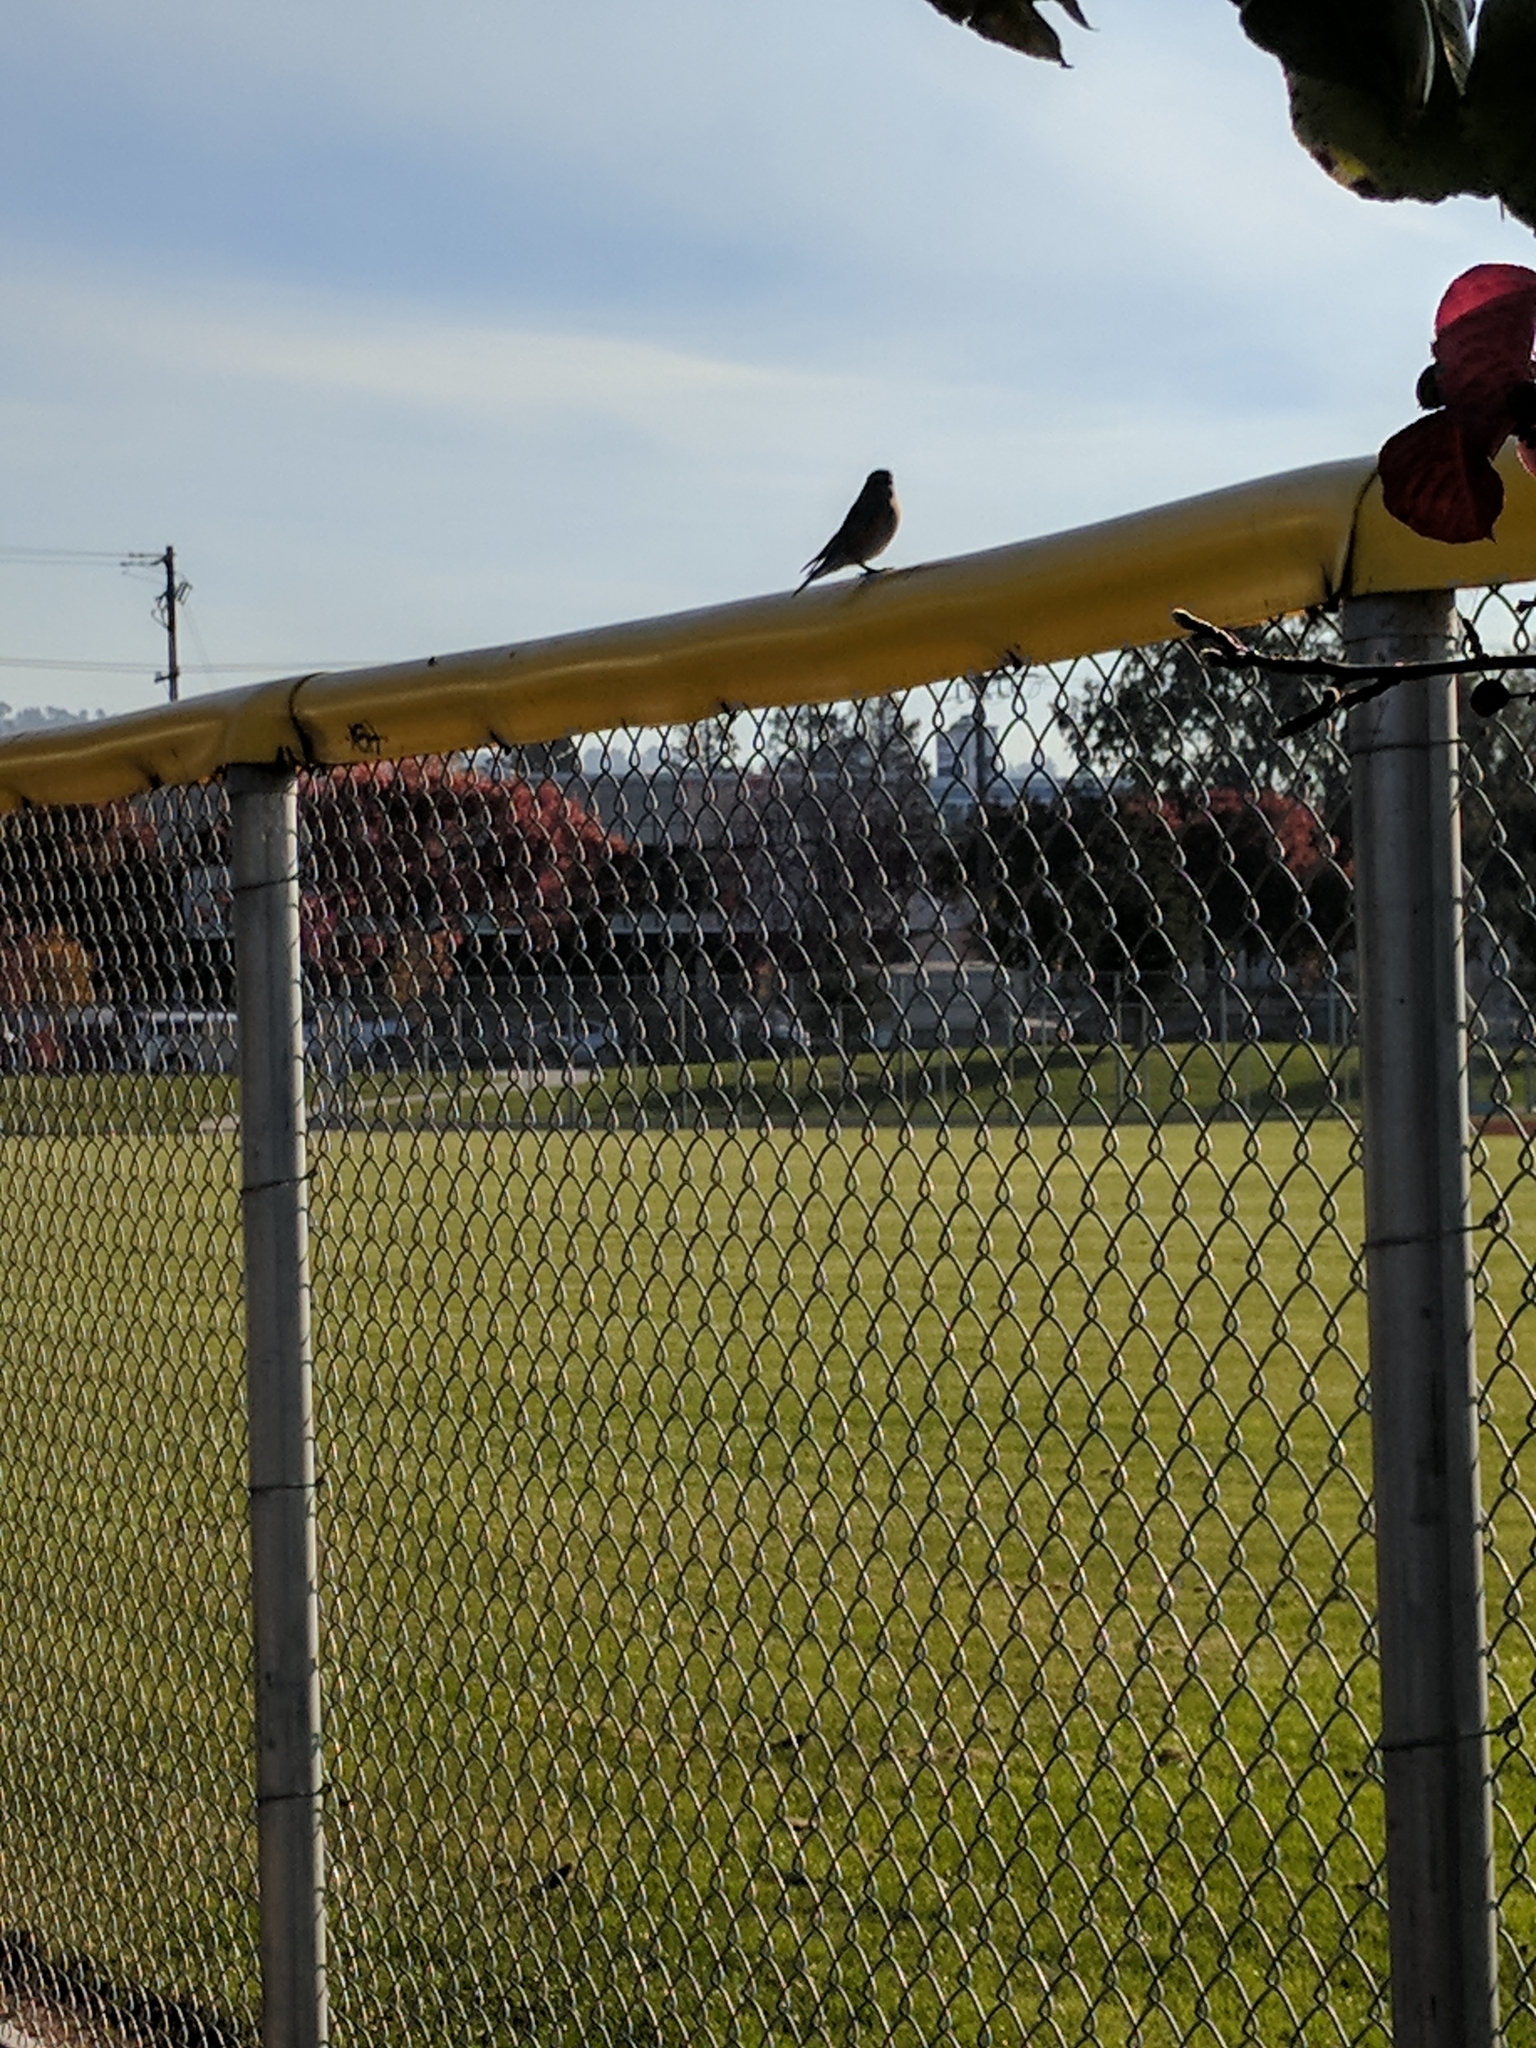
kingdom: Animalia
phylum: Chordata
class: Aves
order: Passeriformes
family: Turdidae
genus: Sialia
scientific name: Sialia mexicana
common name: Western bluebird
